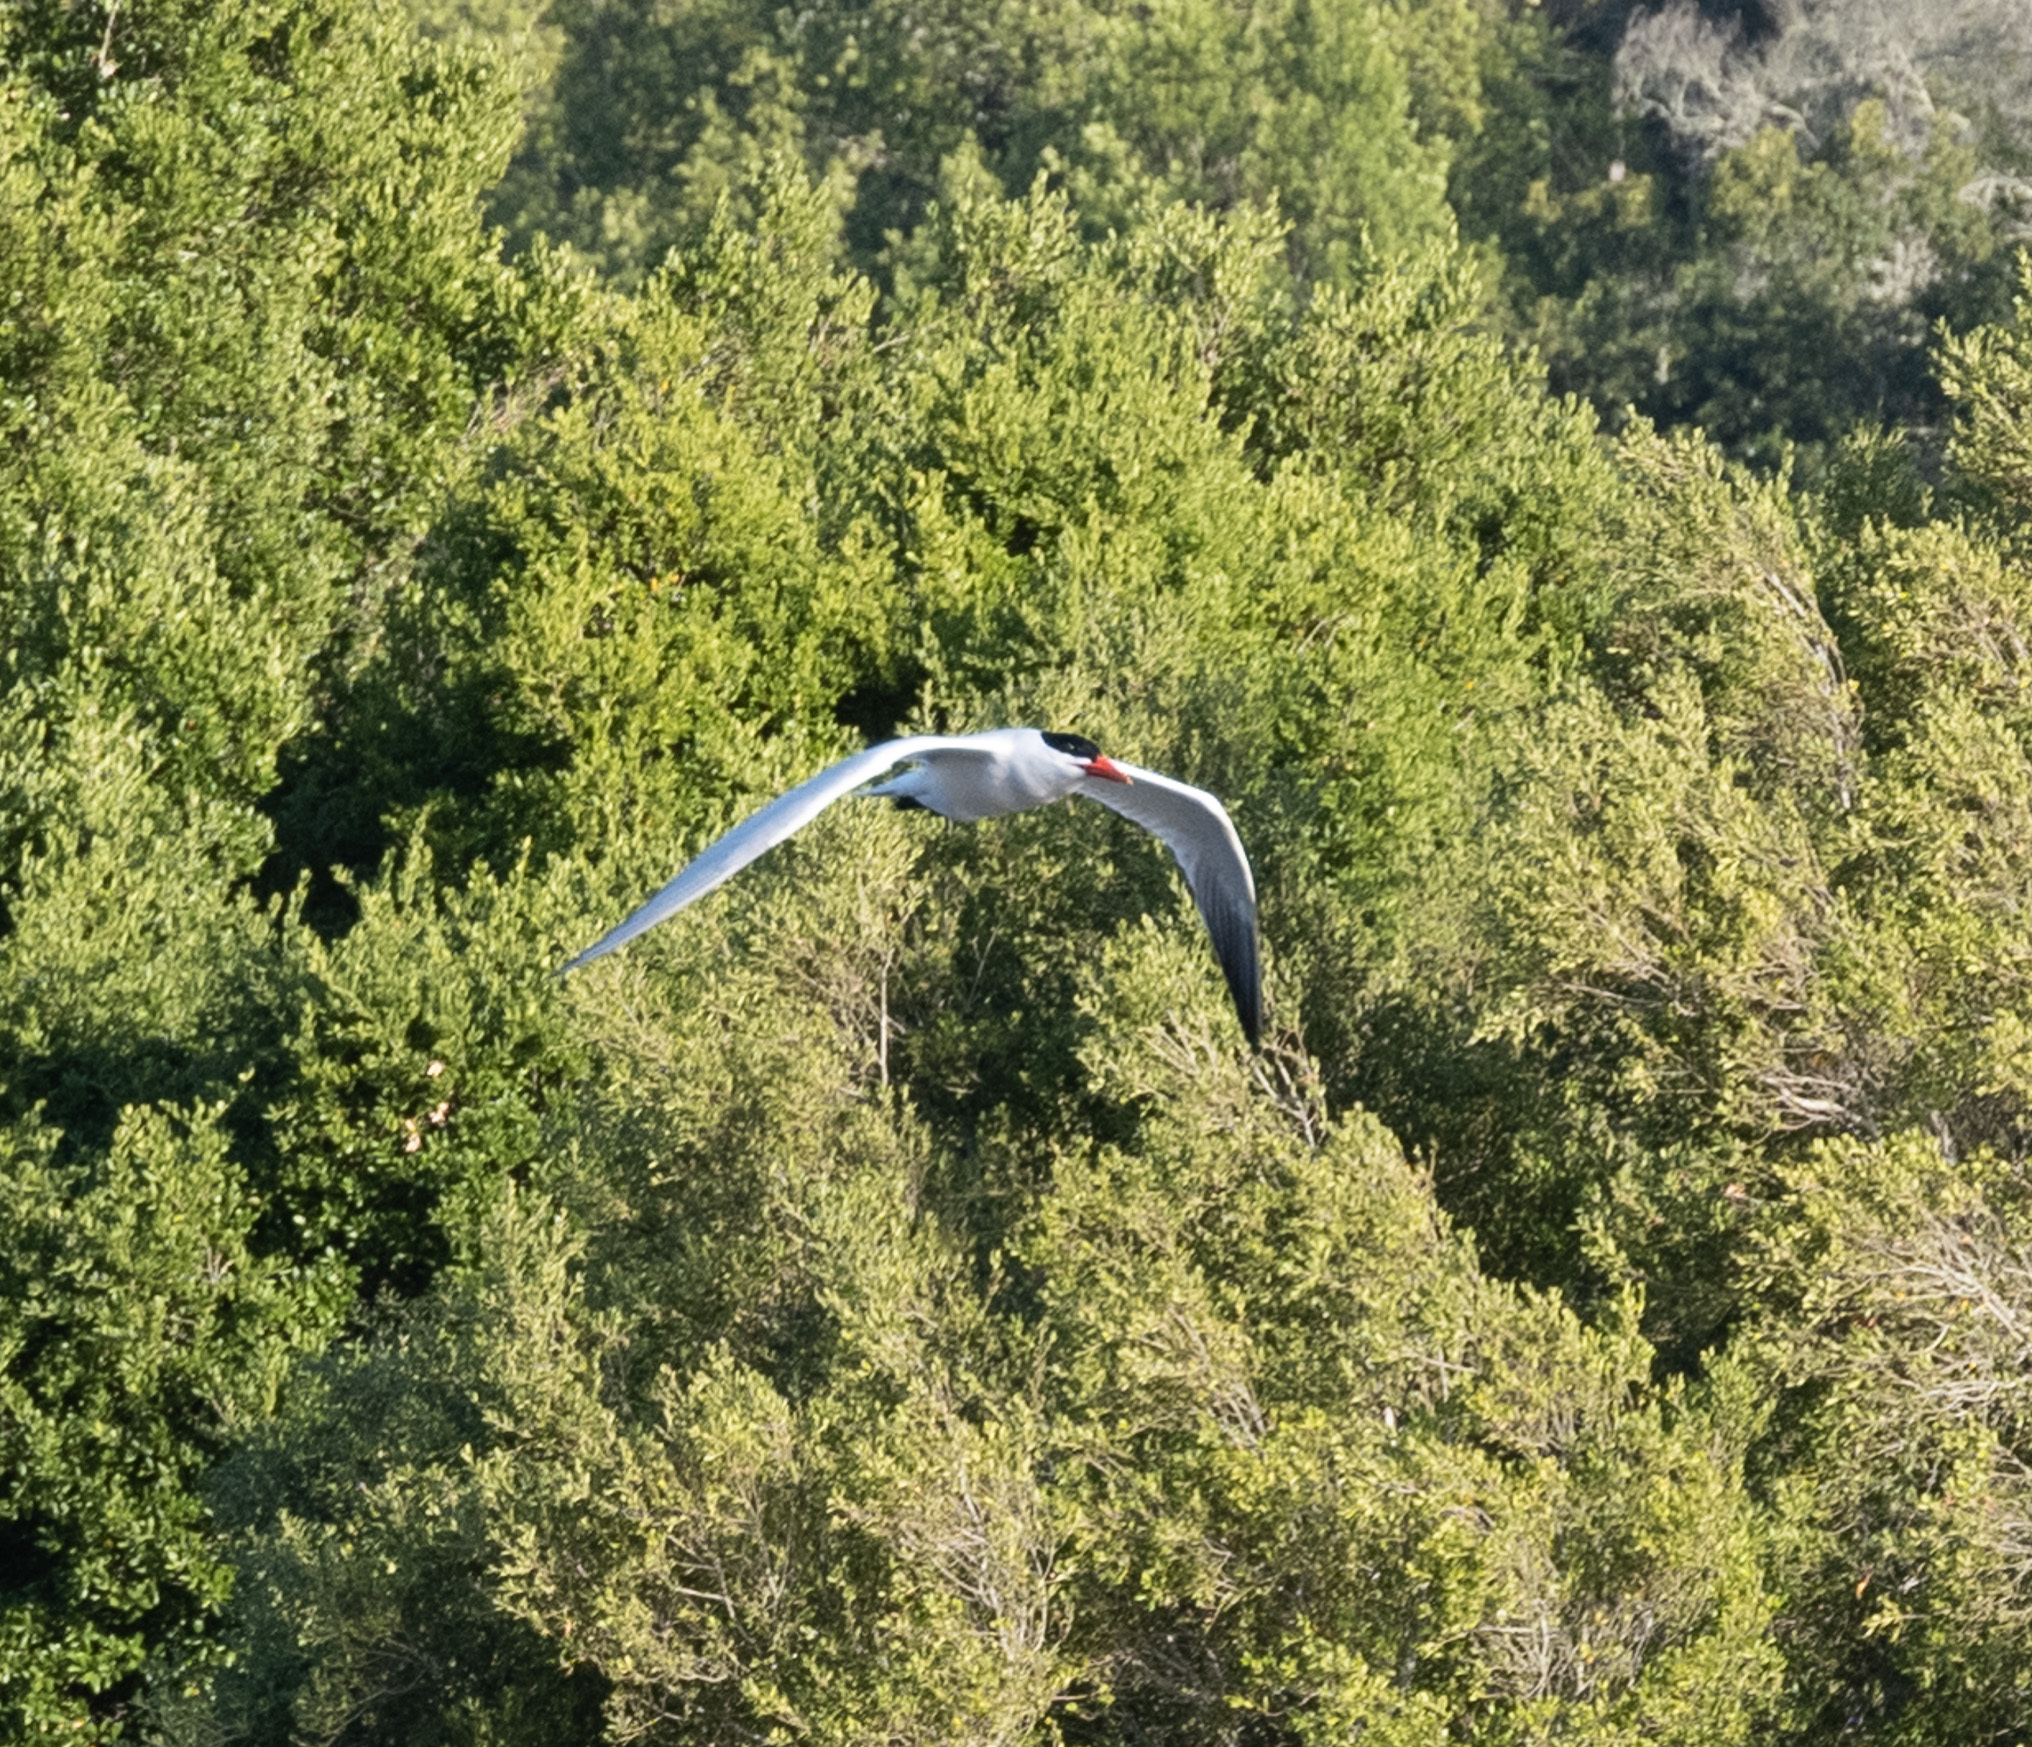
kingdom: Animalia
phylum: Chordata
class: Aves
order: Charadriiformes
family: Laridae
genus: Hydroprogne
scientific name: Hydroprogne caspia
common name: Caspian tern
